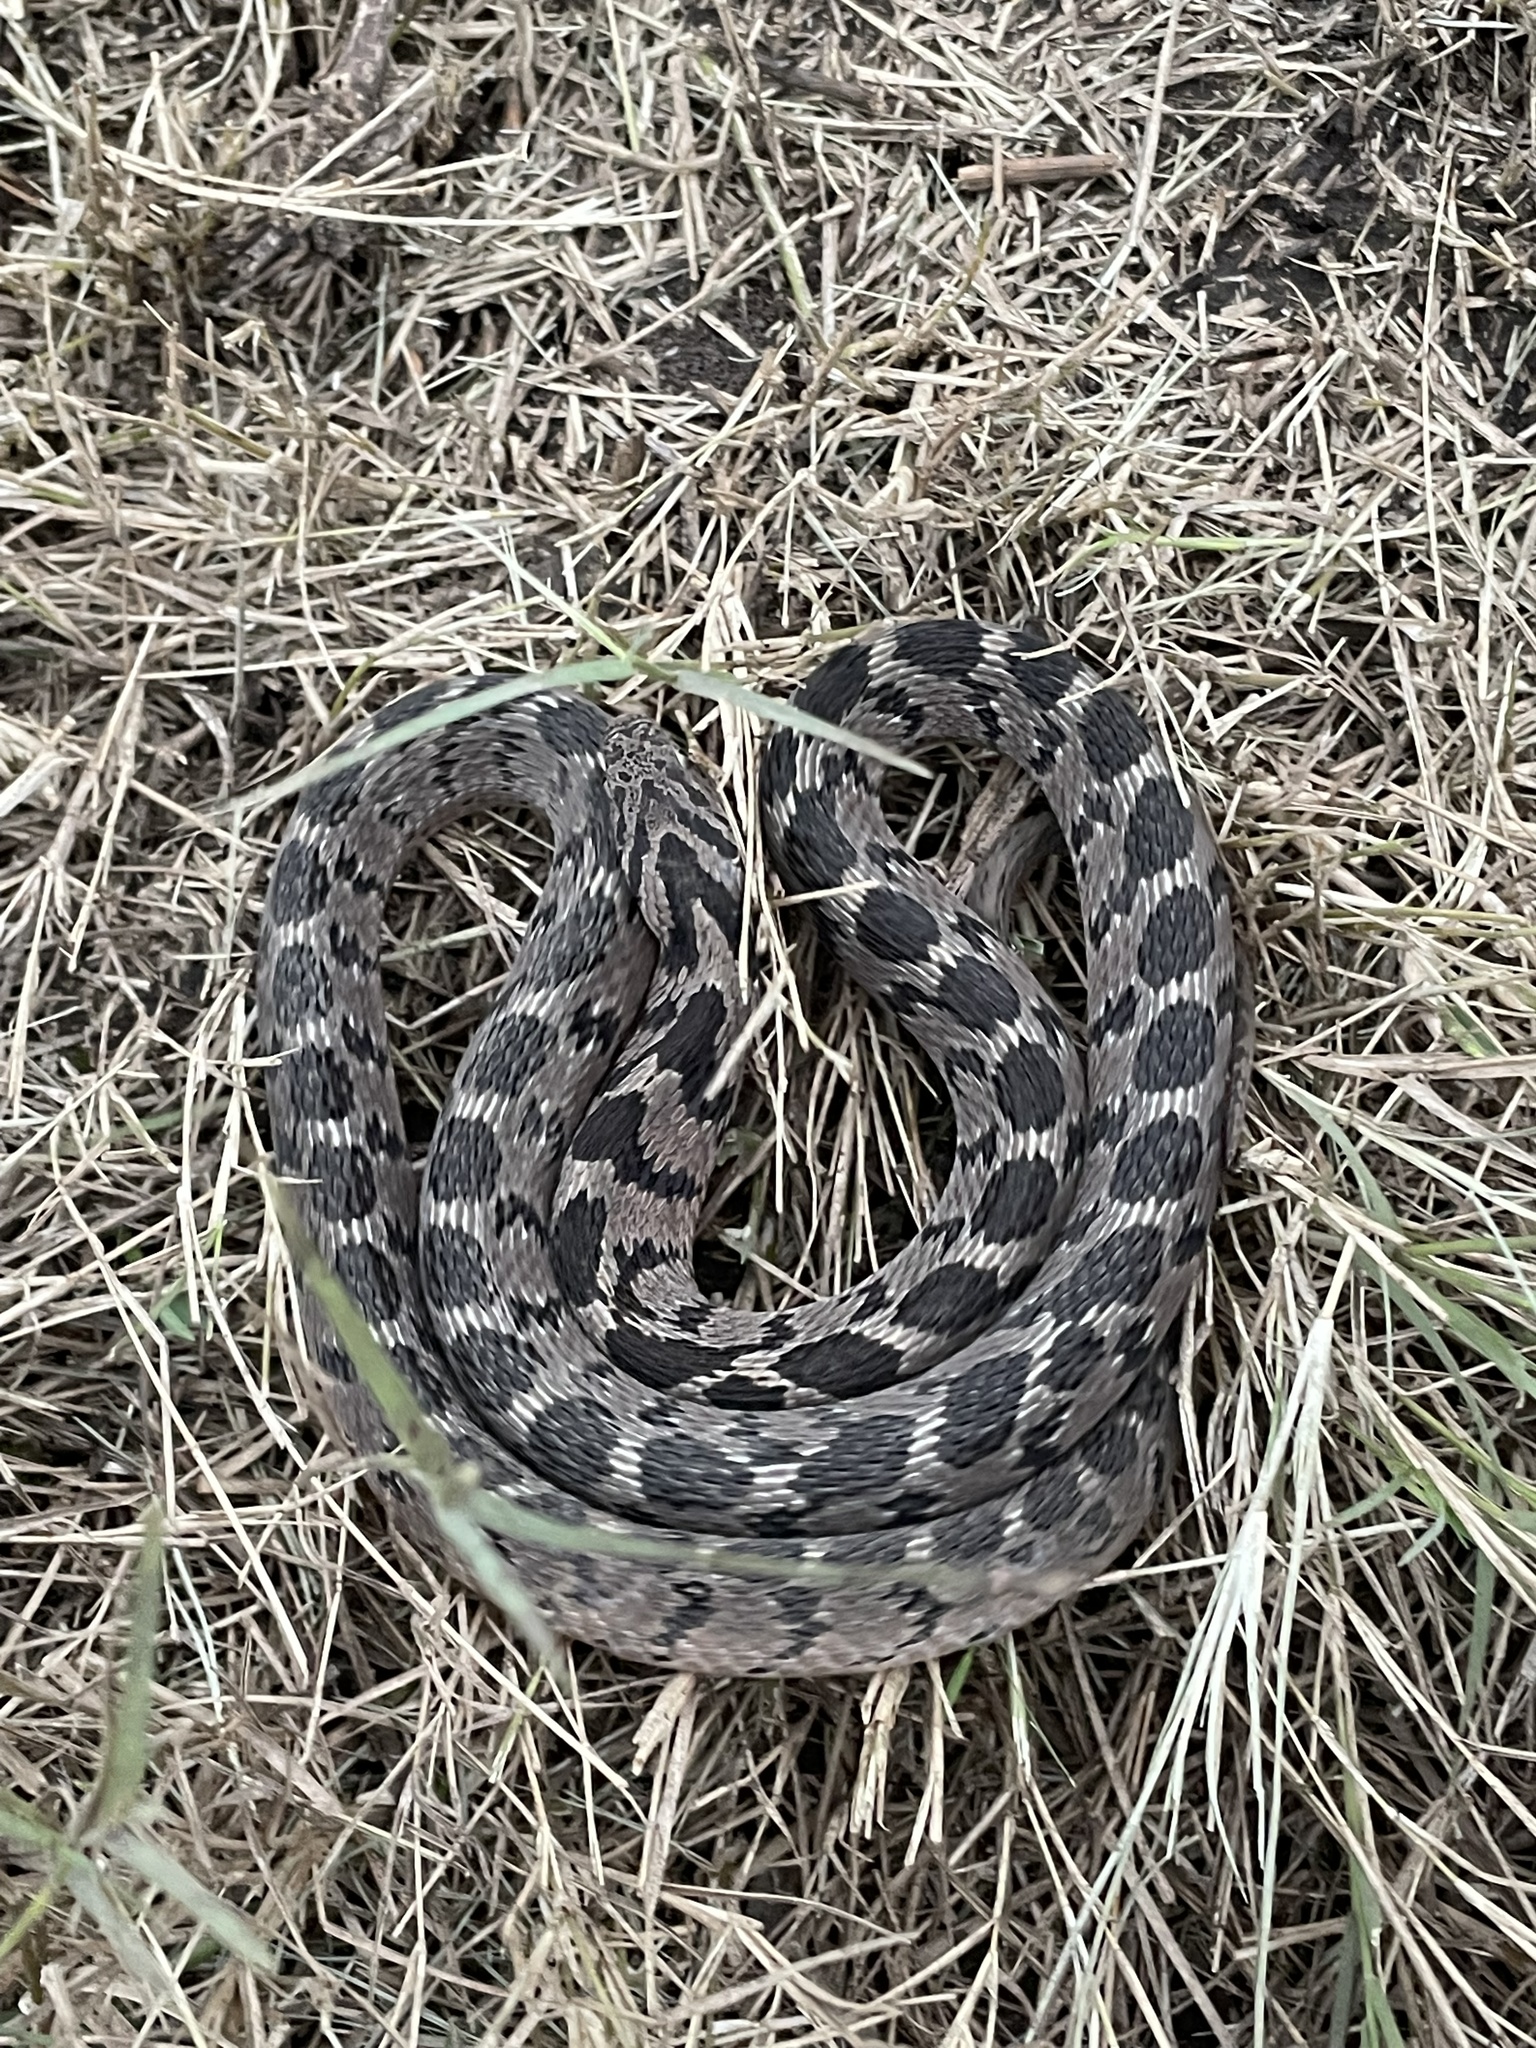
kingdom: Animalia
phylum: Chordata
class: Squamata
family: Colubridae
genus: Dasypeltis
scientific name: Dasypeltis scabra
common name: Common egg eater
